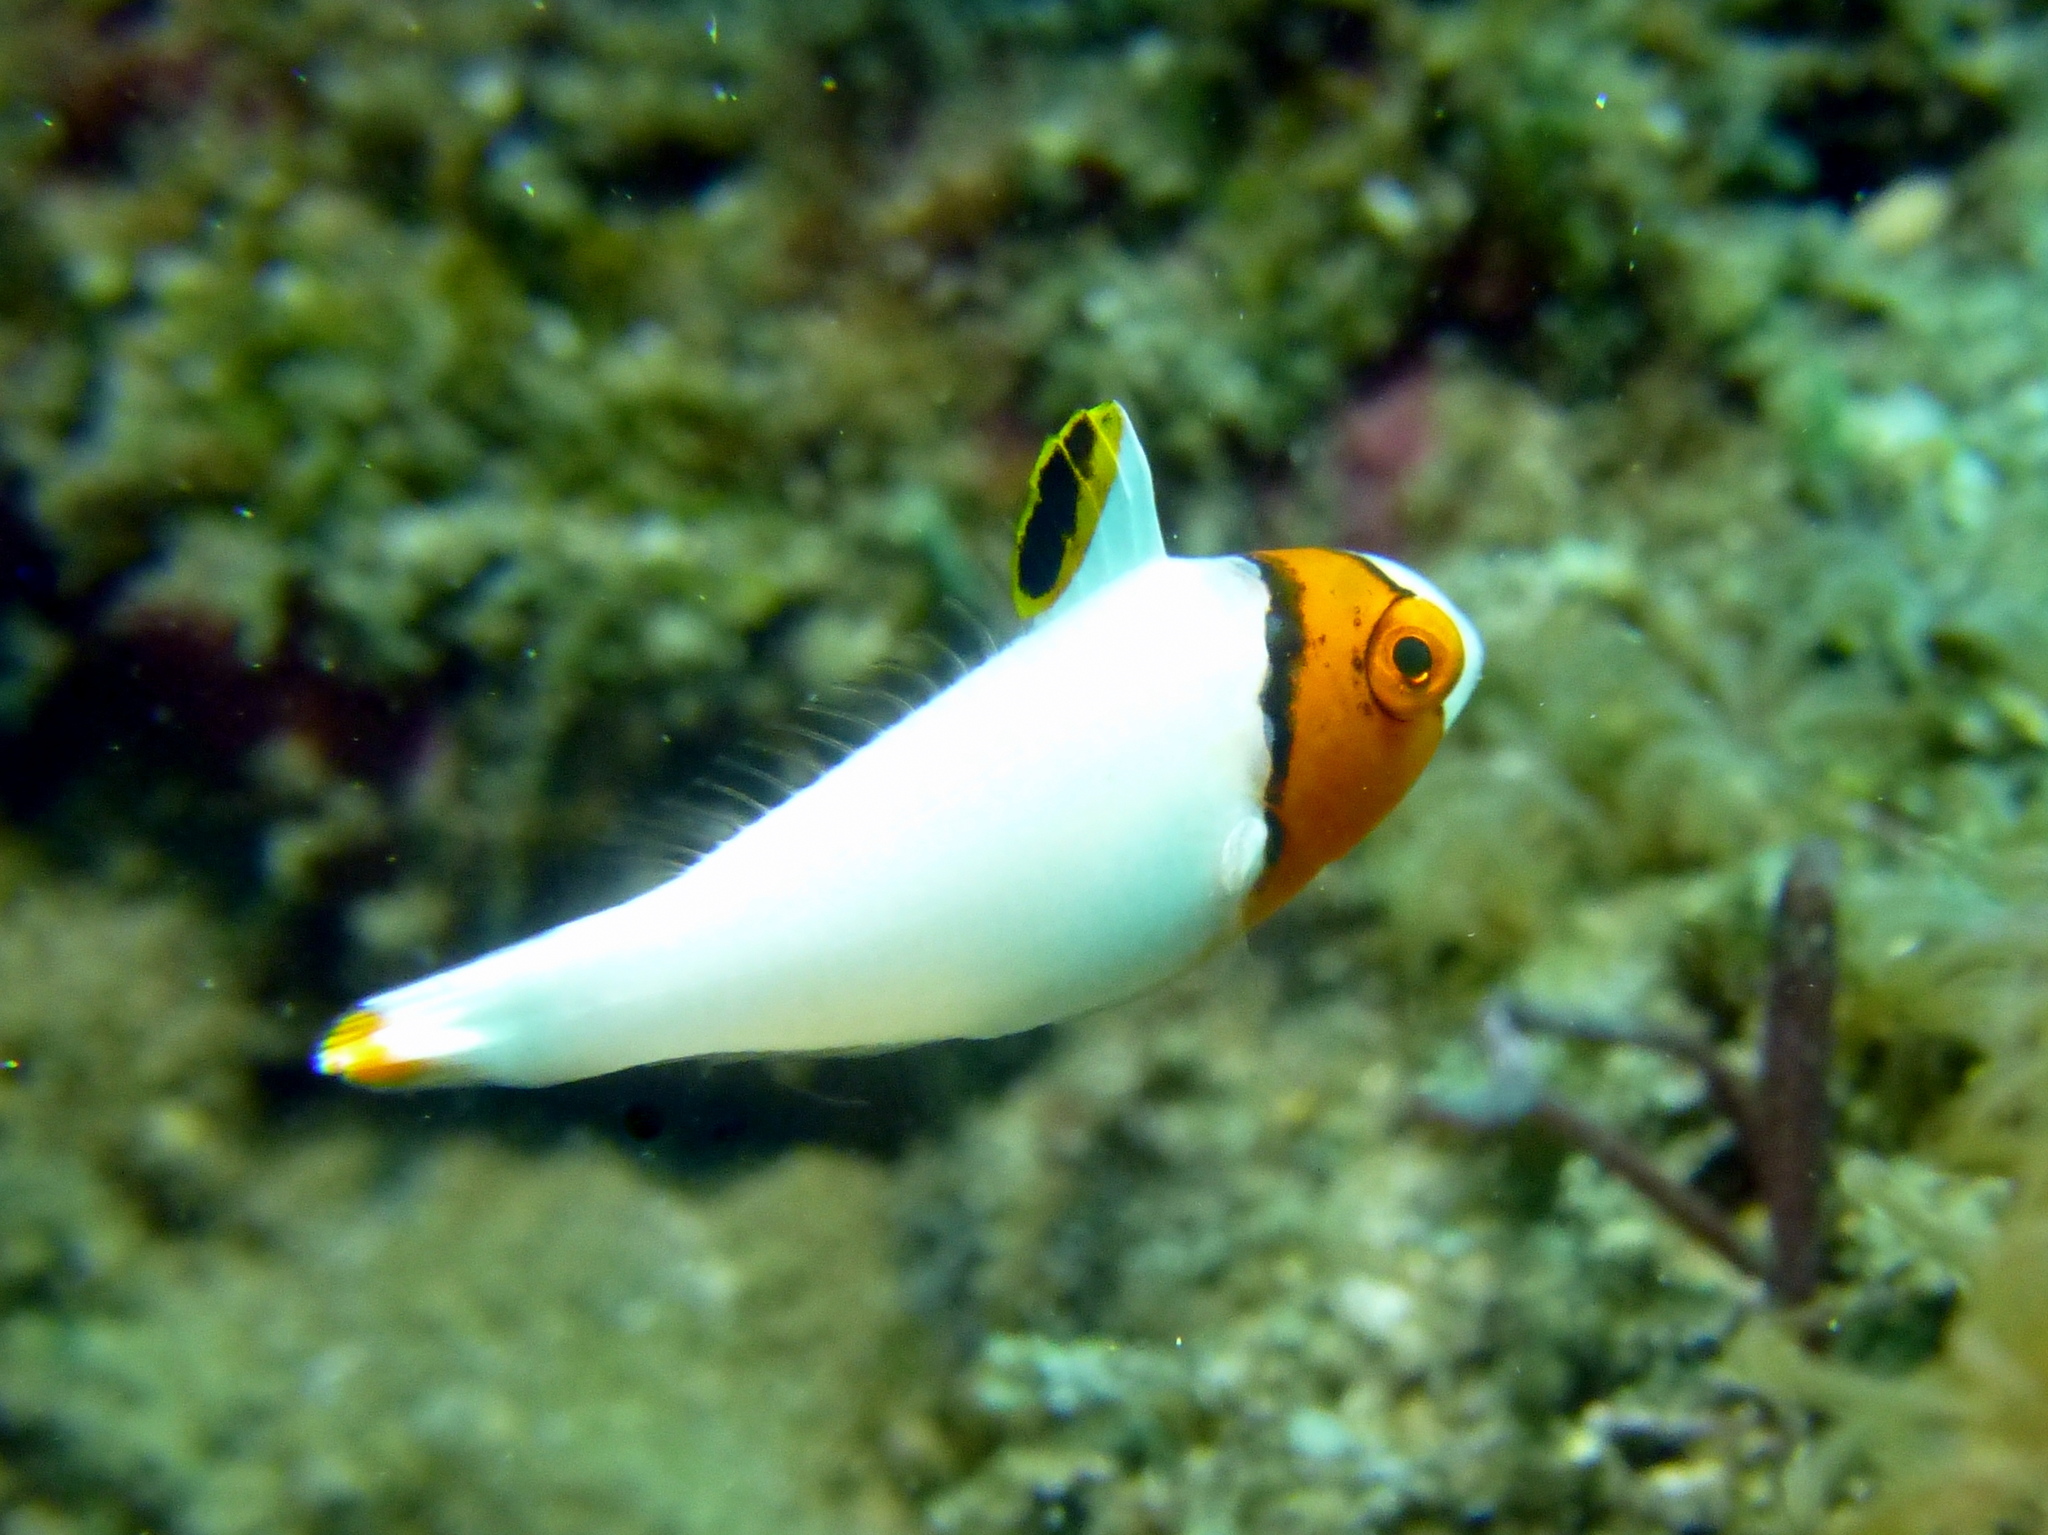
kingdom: Animalia
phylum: Chordata
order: Perciformes
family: Scaridae
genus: Cetoscarus
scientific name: Cetoscarus ocellatus
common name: Bicolor parrotfish
